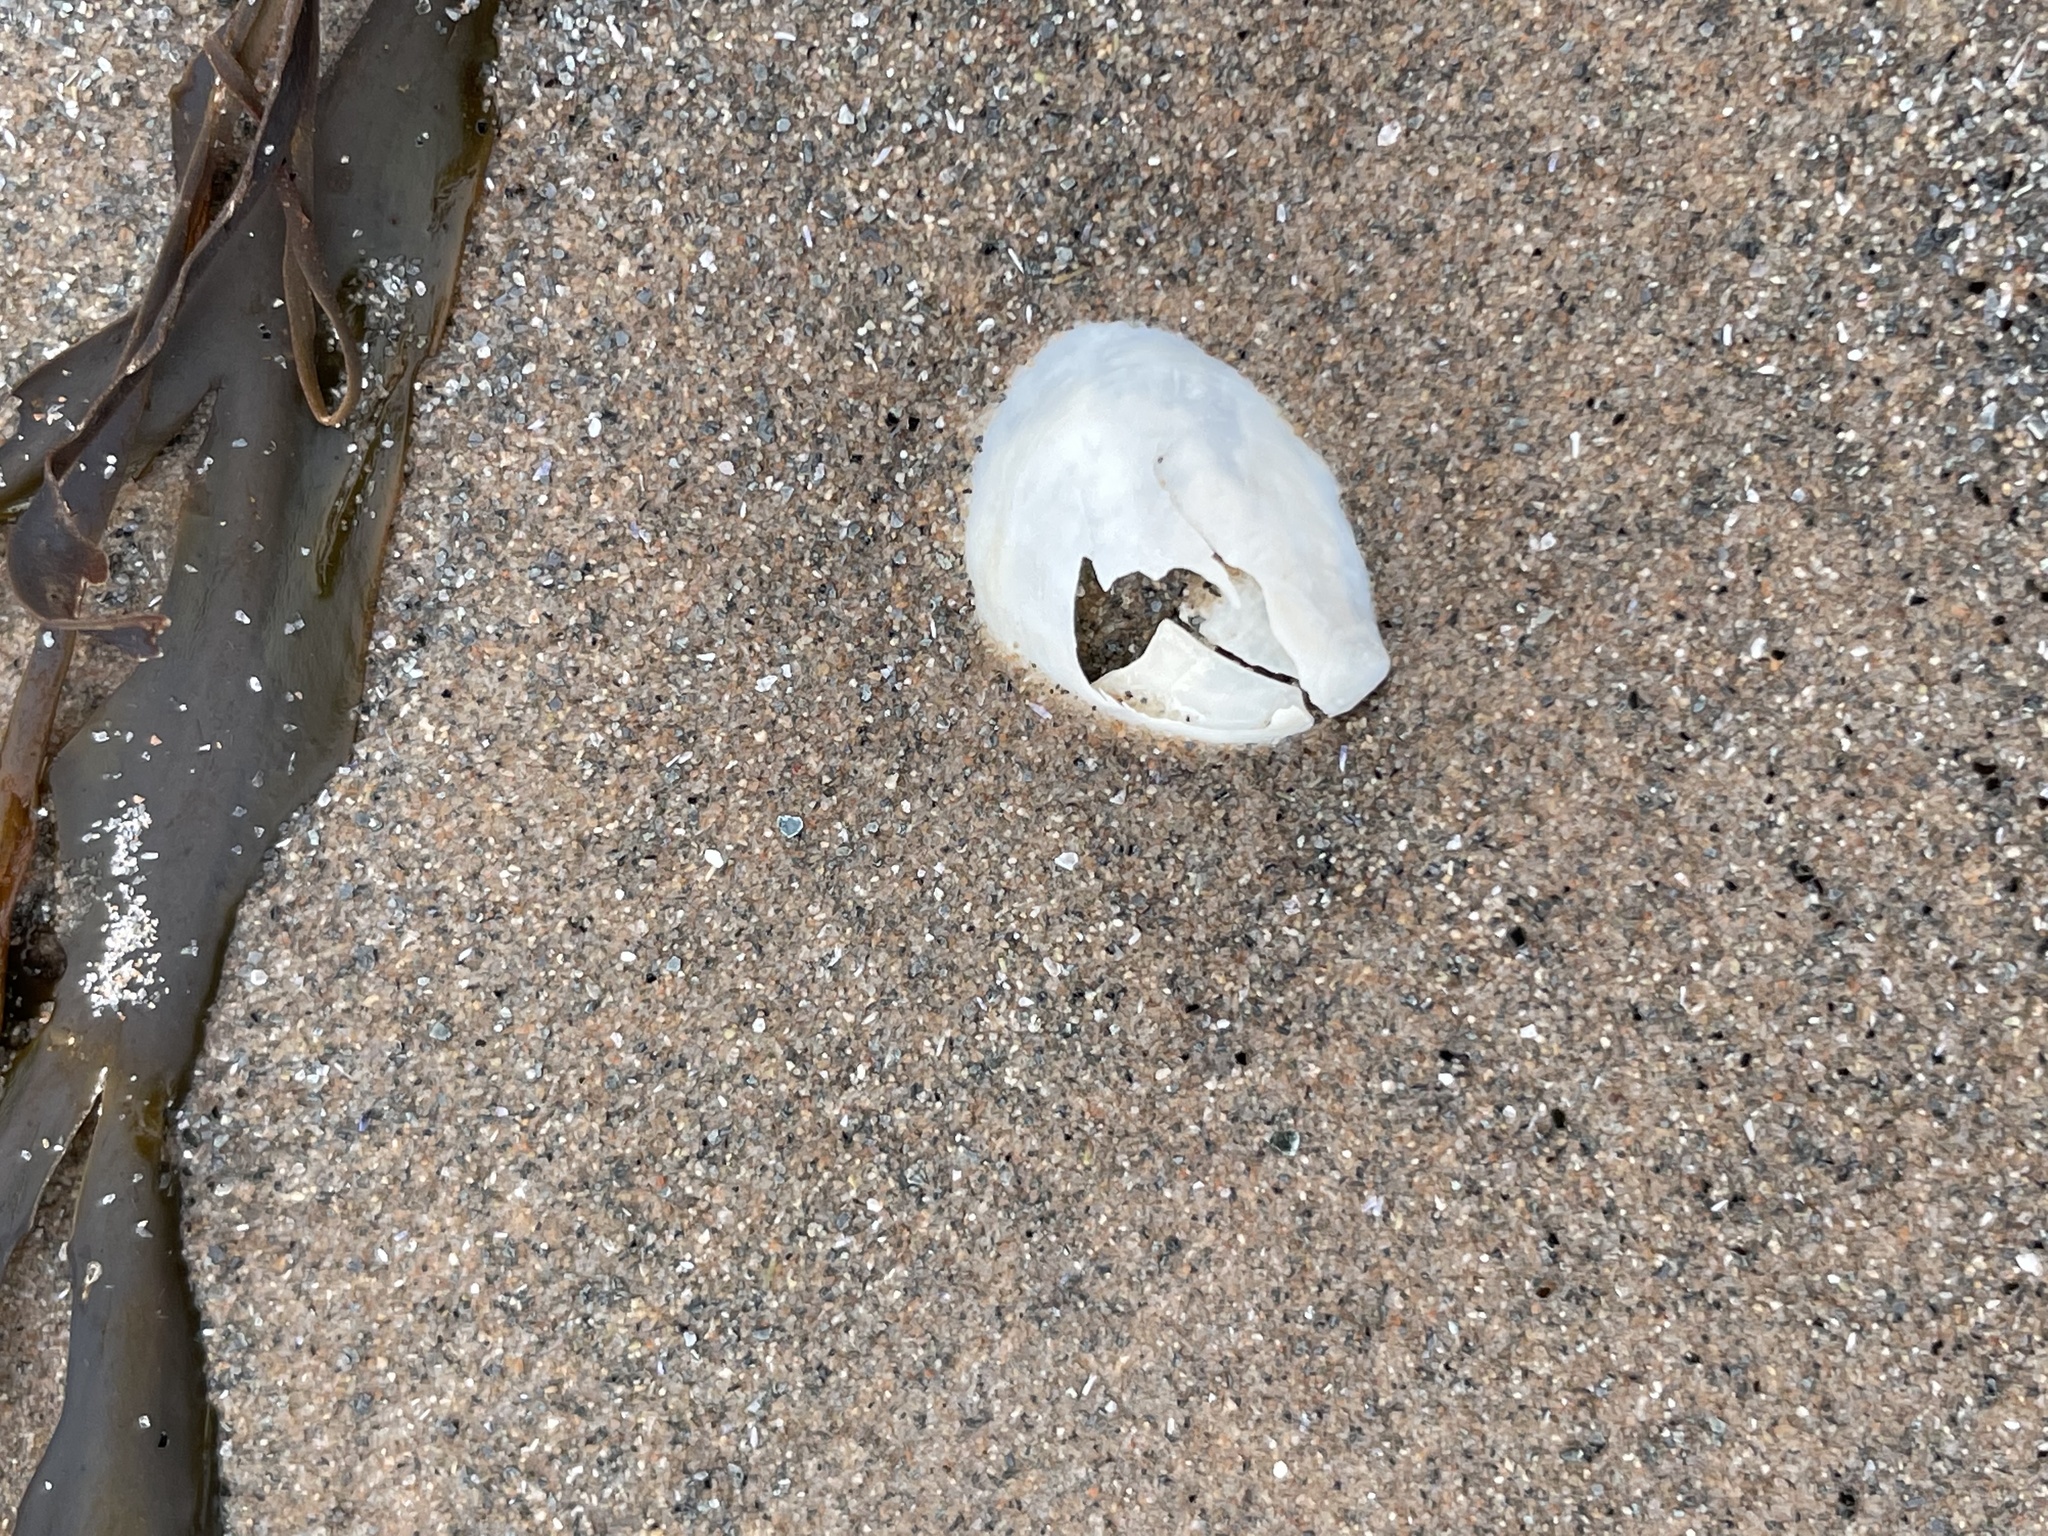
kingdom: Animalia
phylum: Mollusca
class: Gastropoda
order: Littorinimorpha
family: Calyptraeidae
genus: Crepidula
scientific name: Crepidula fornicata
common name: Slipper limpet
